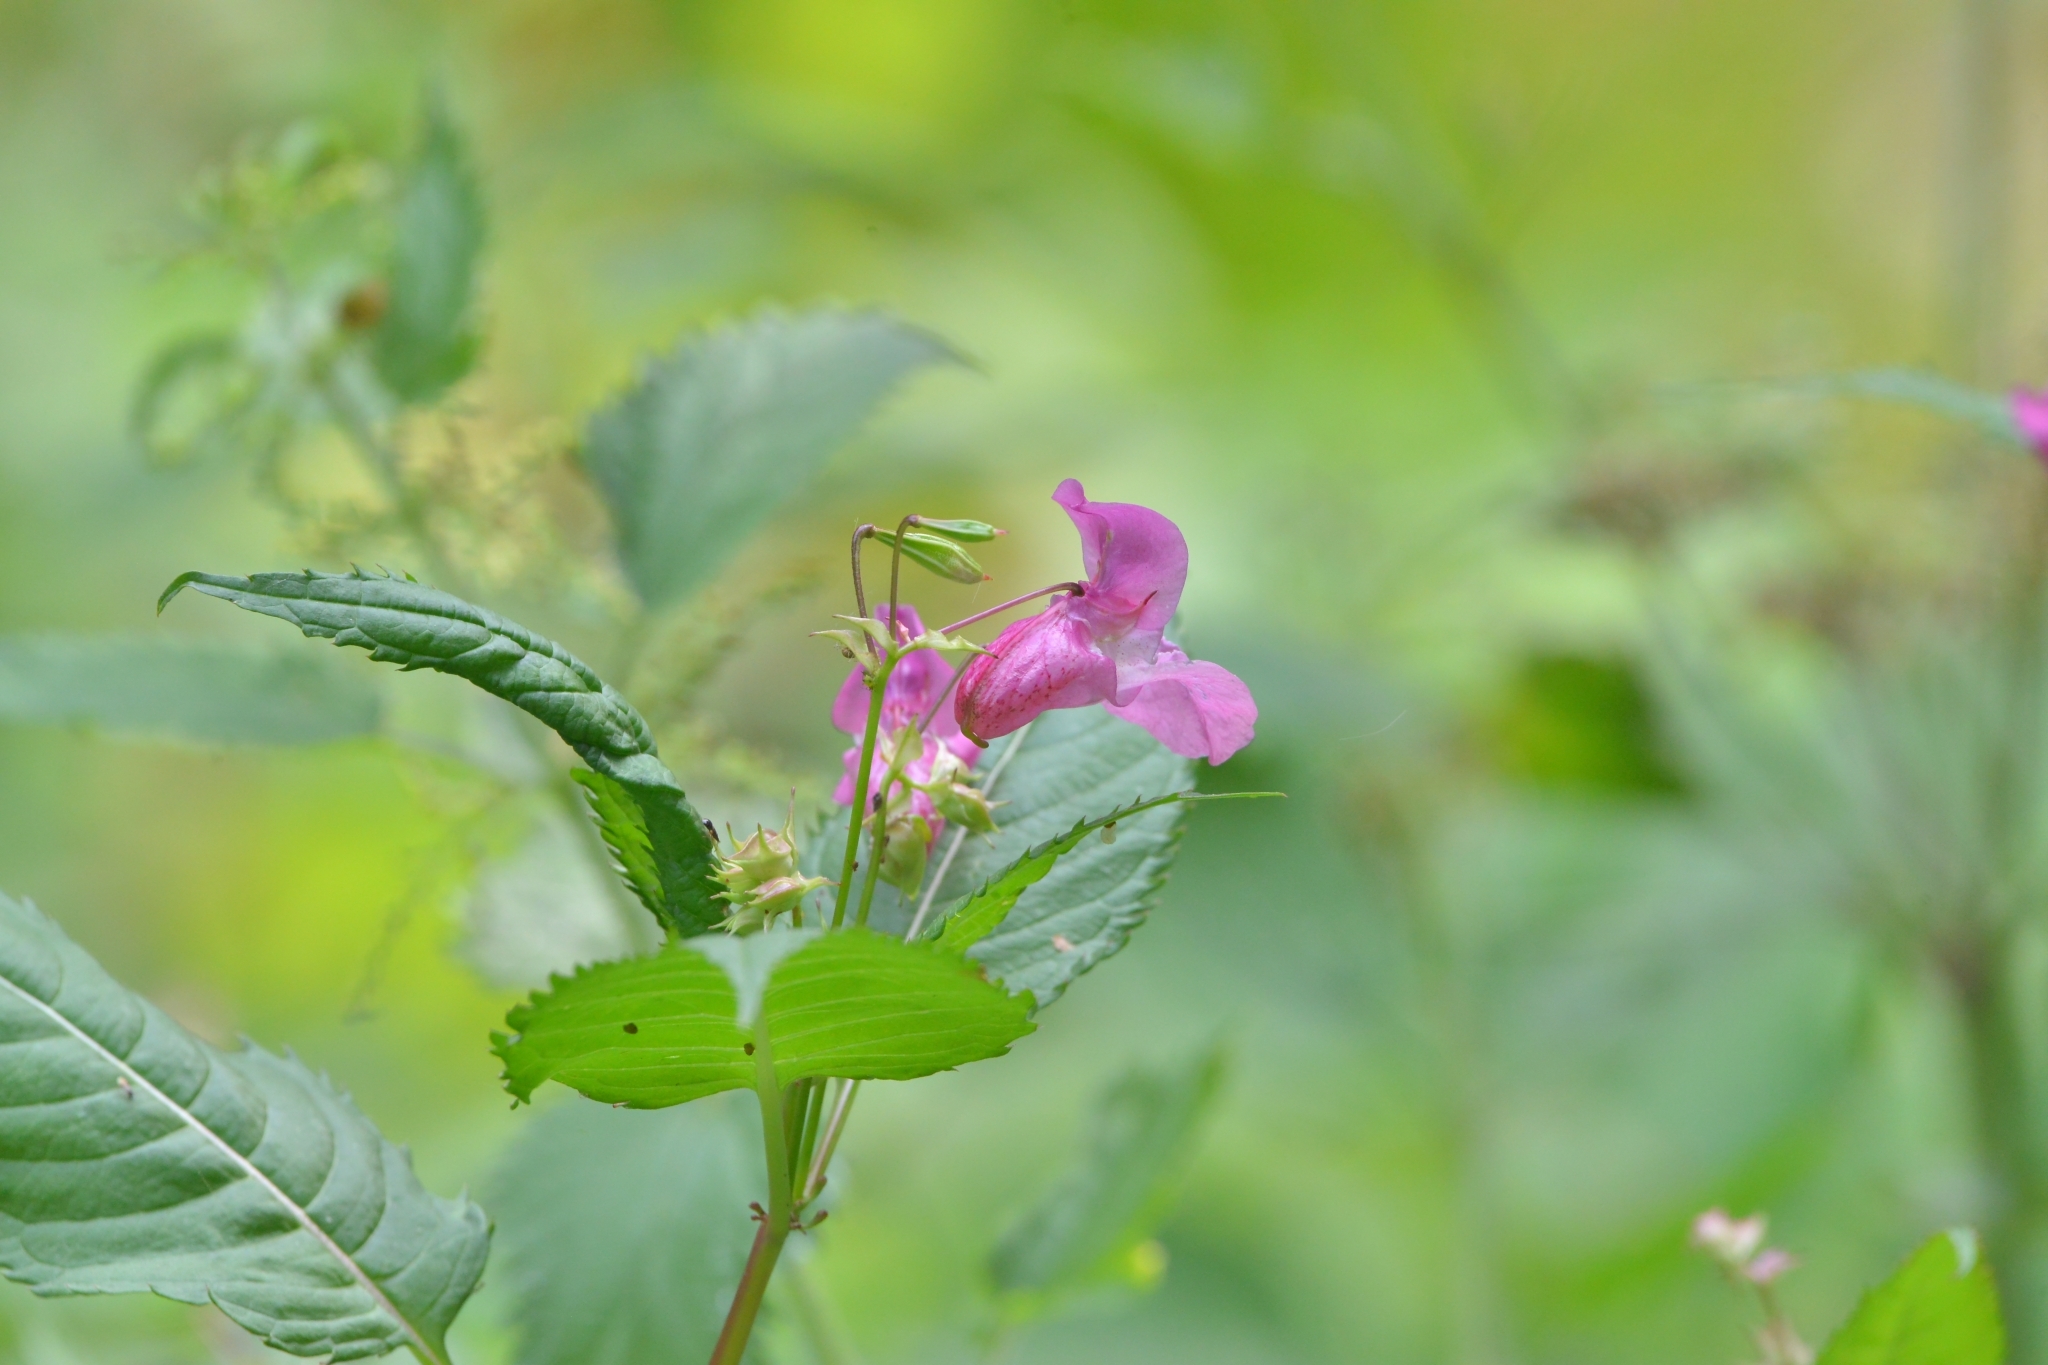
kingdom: Plantae
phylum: Tracheophyta
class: Magnoliopsida
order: Ericales
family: Balsaminaceae
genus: Impatiens
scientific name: Impatiens glandulifera
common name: Himalayan balsam
